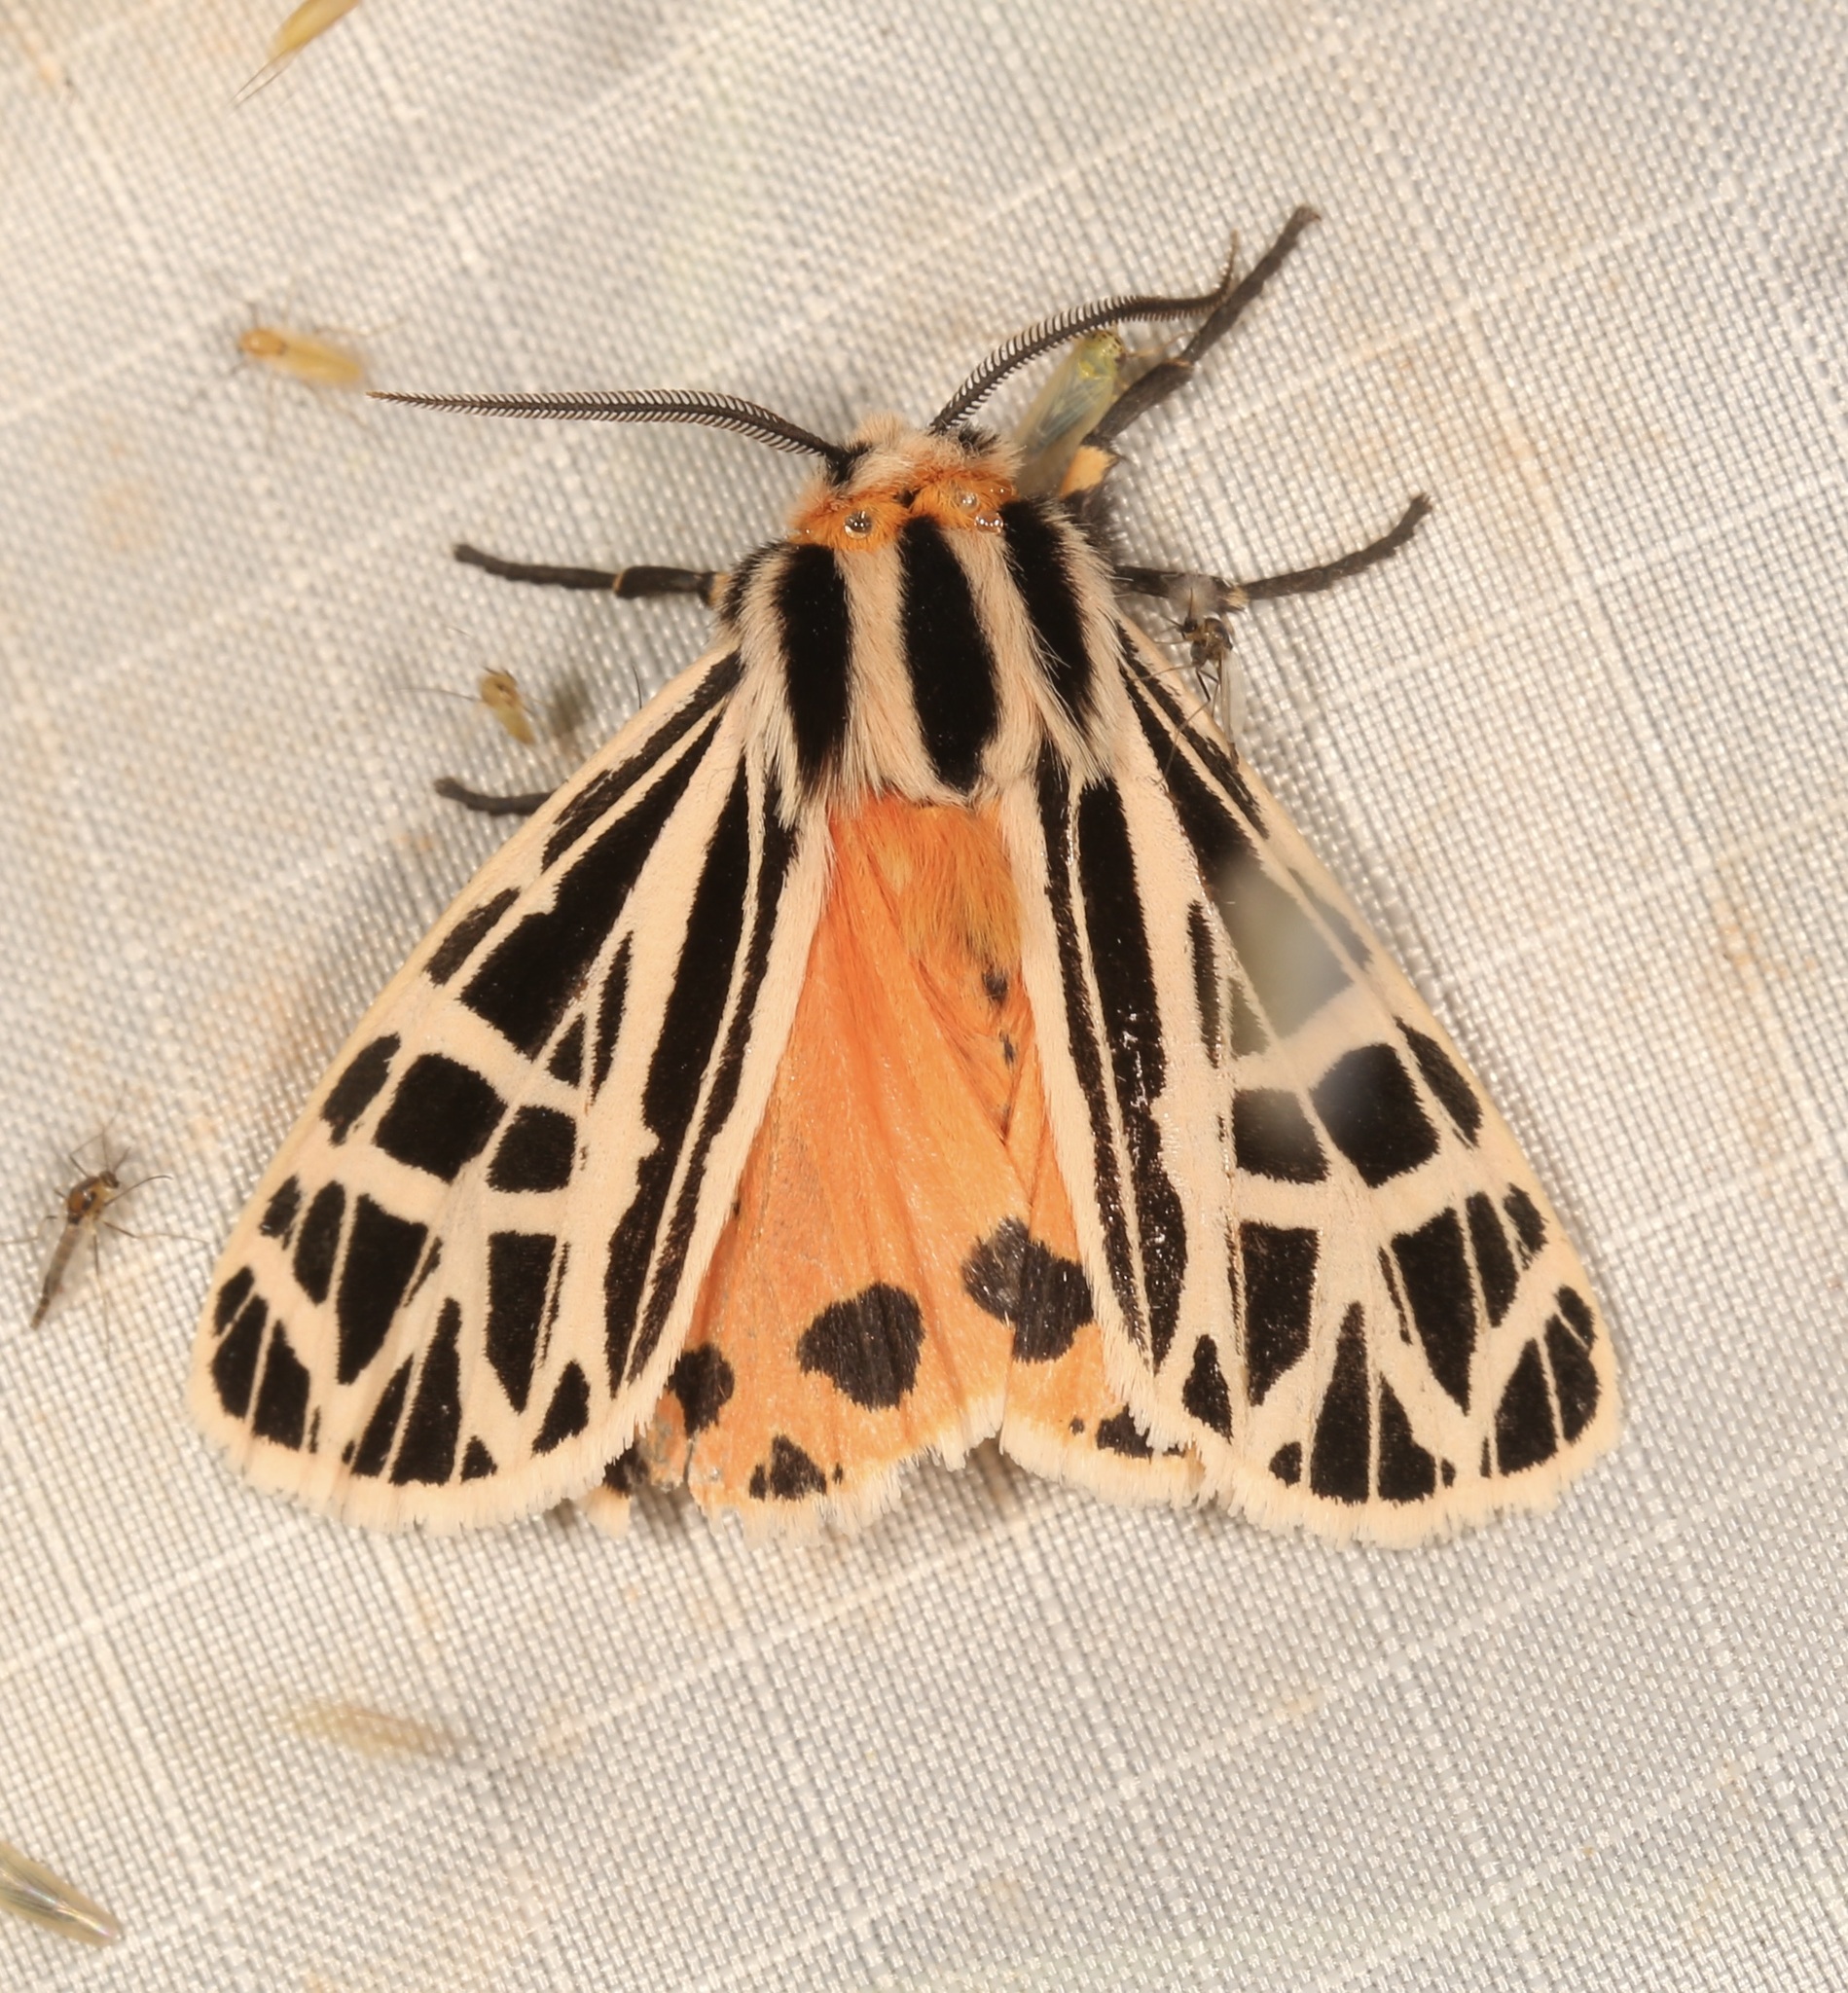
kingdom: Animalia
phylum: Arthropoda
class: Insecta
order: Lepidoptera
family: Erebidae
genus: Grammia
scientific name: Grammia parthenice
